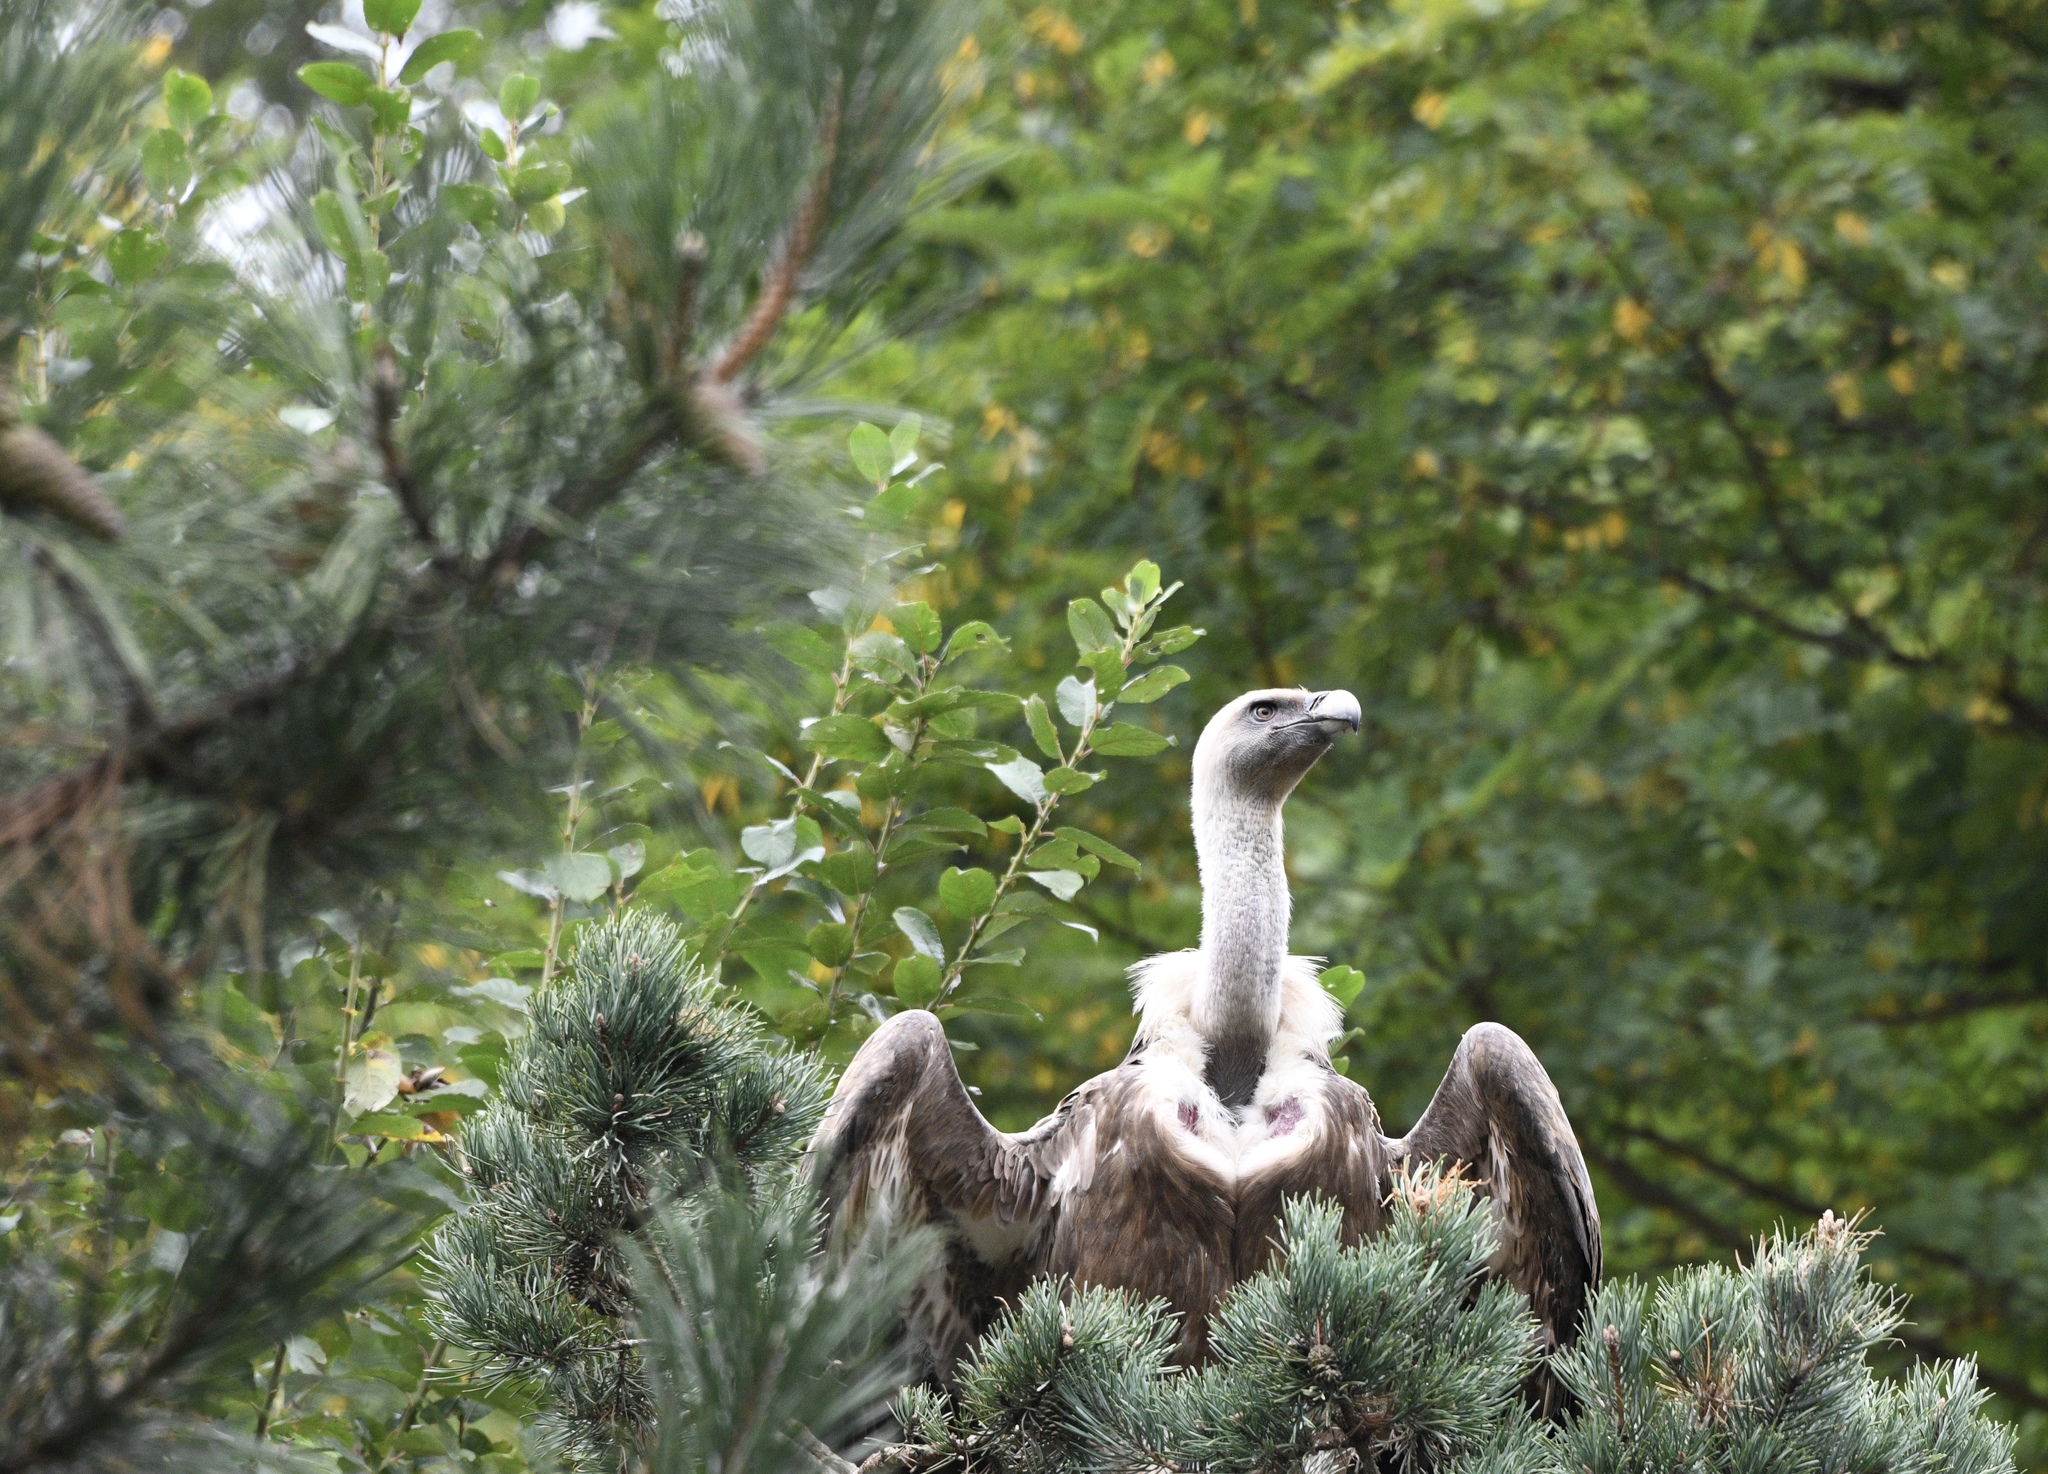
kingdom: Animalia
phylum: Chordata
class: Aves
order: Accipitriformes
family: Accipitridae
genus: Gyps
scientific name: Gyps fulvus
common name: Griffon vulture
